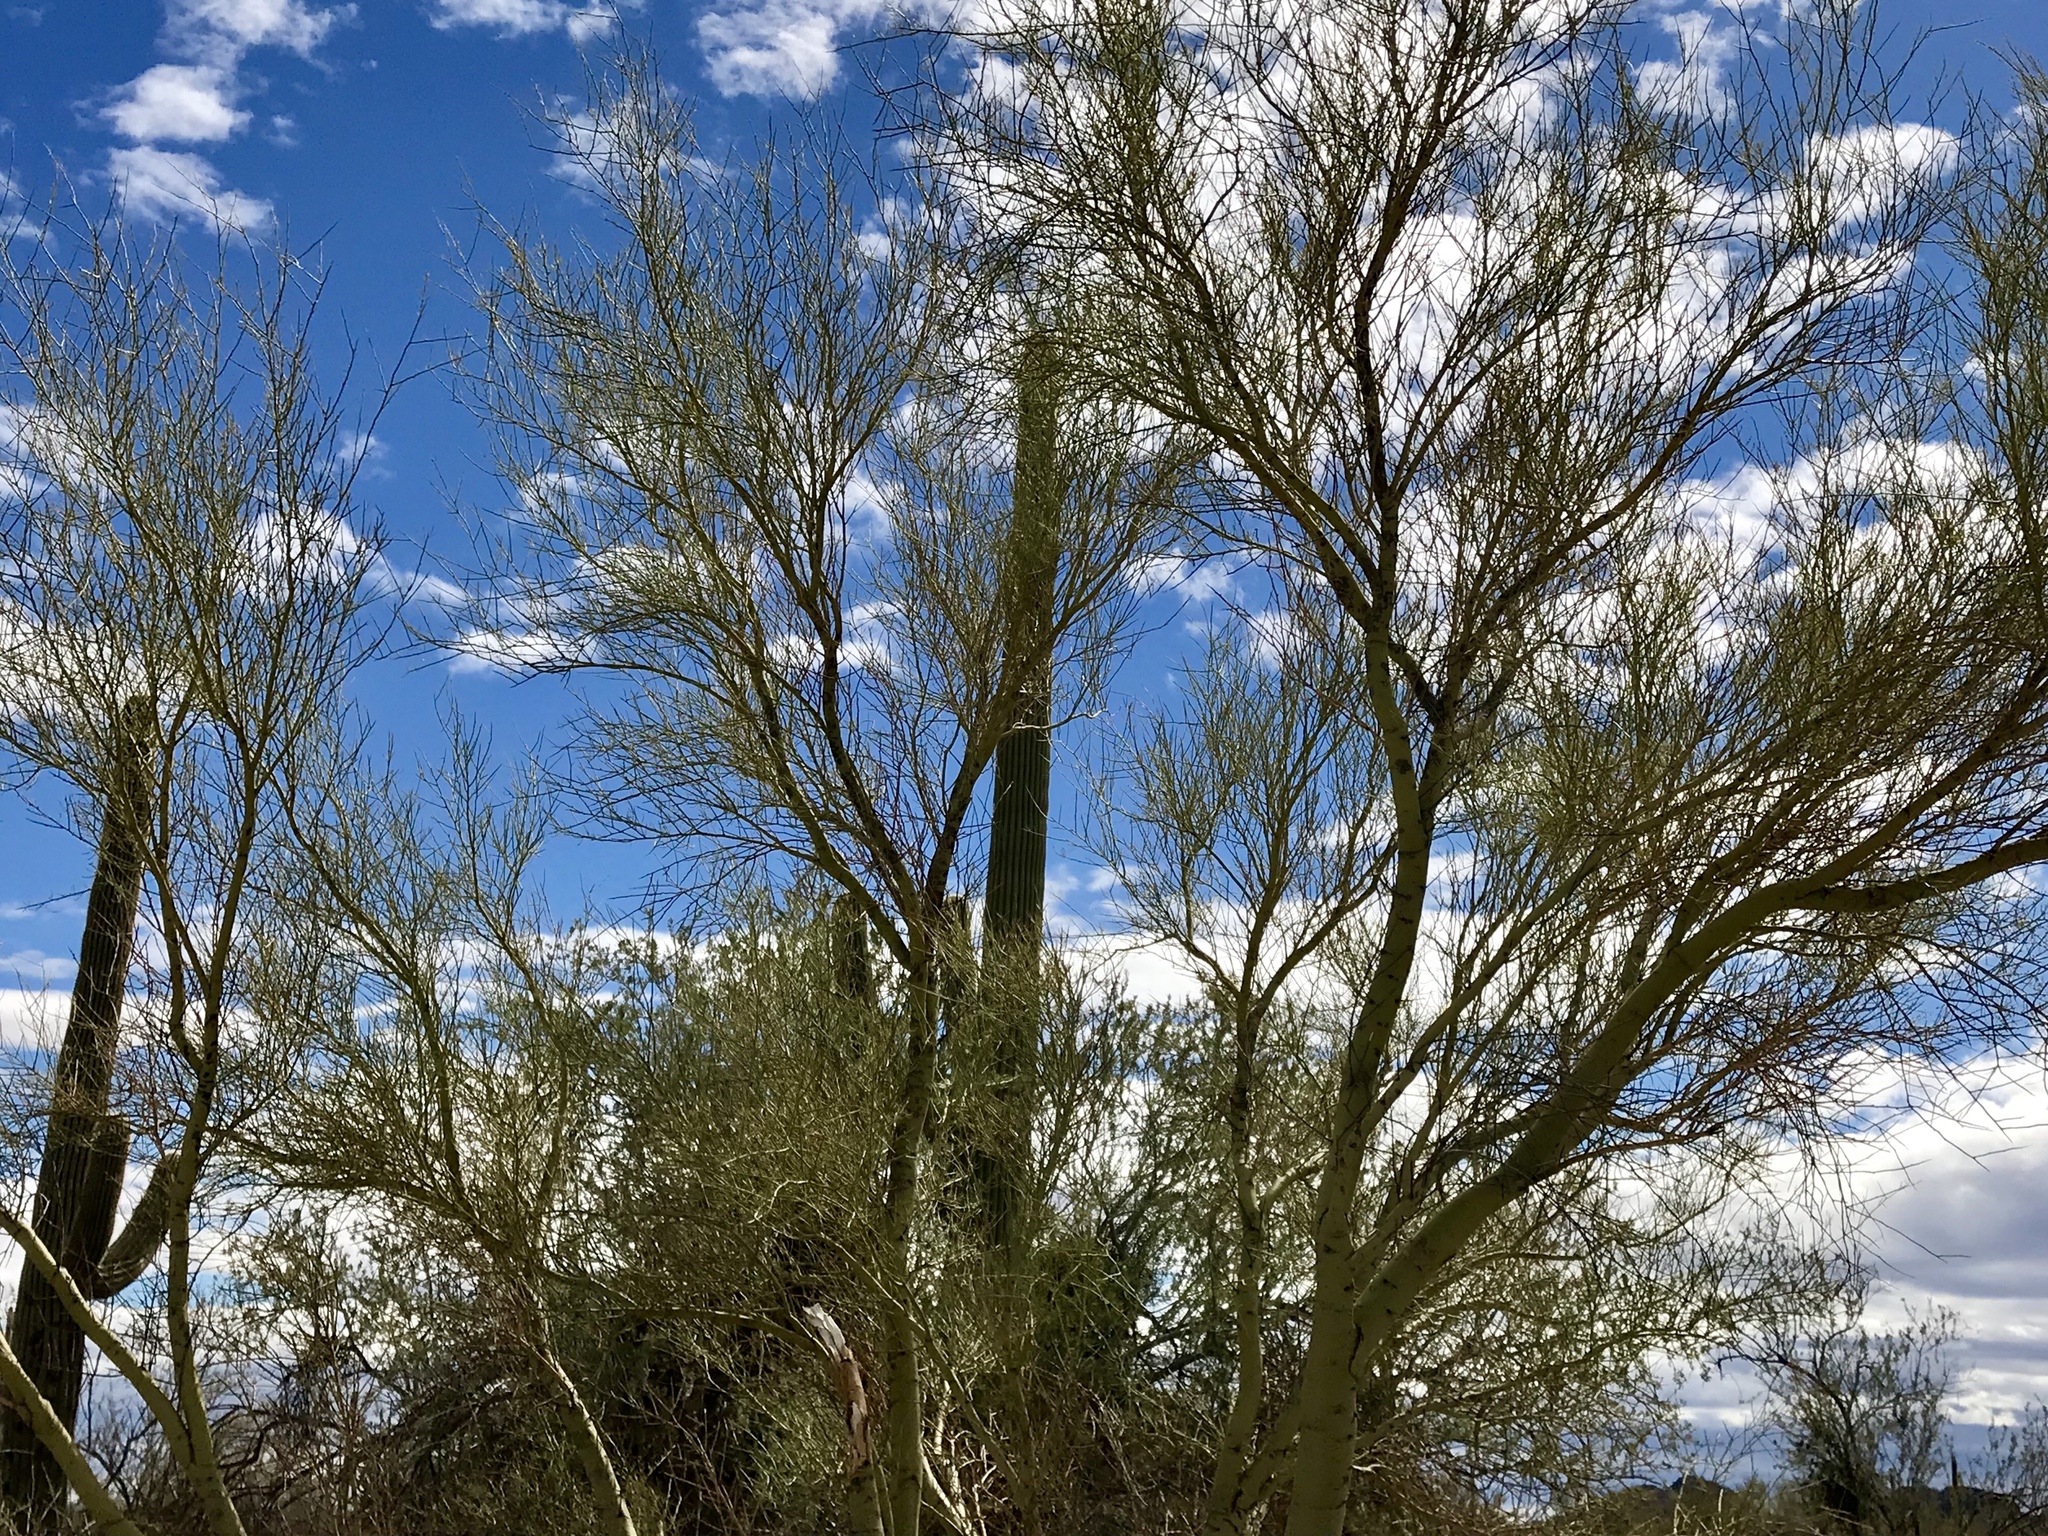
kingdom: Plantae
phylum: Tracheophyta
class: Magnoliopsida
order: Fabales
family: Fabaceae
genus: Parkinsonia
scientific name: Parkinsonia microphylla
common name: Yellow paloverde
